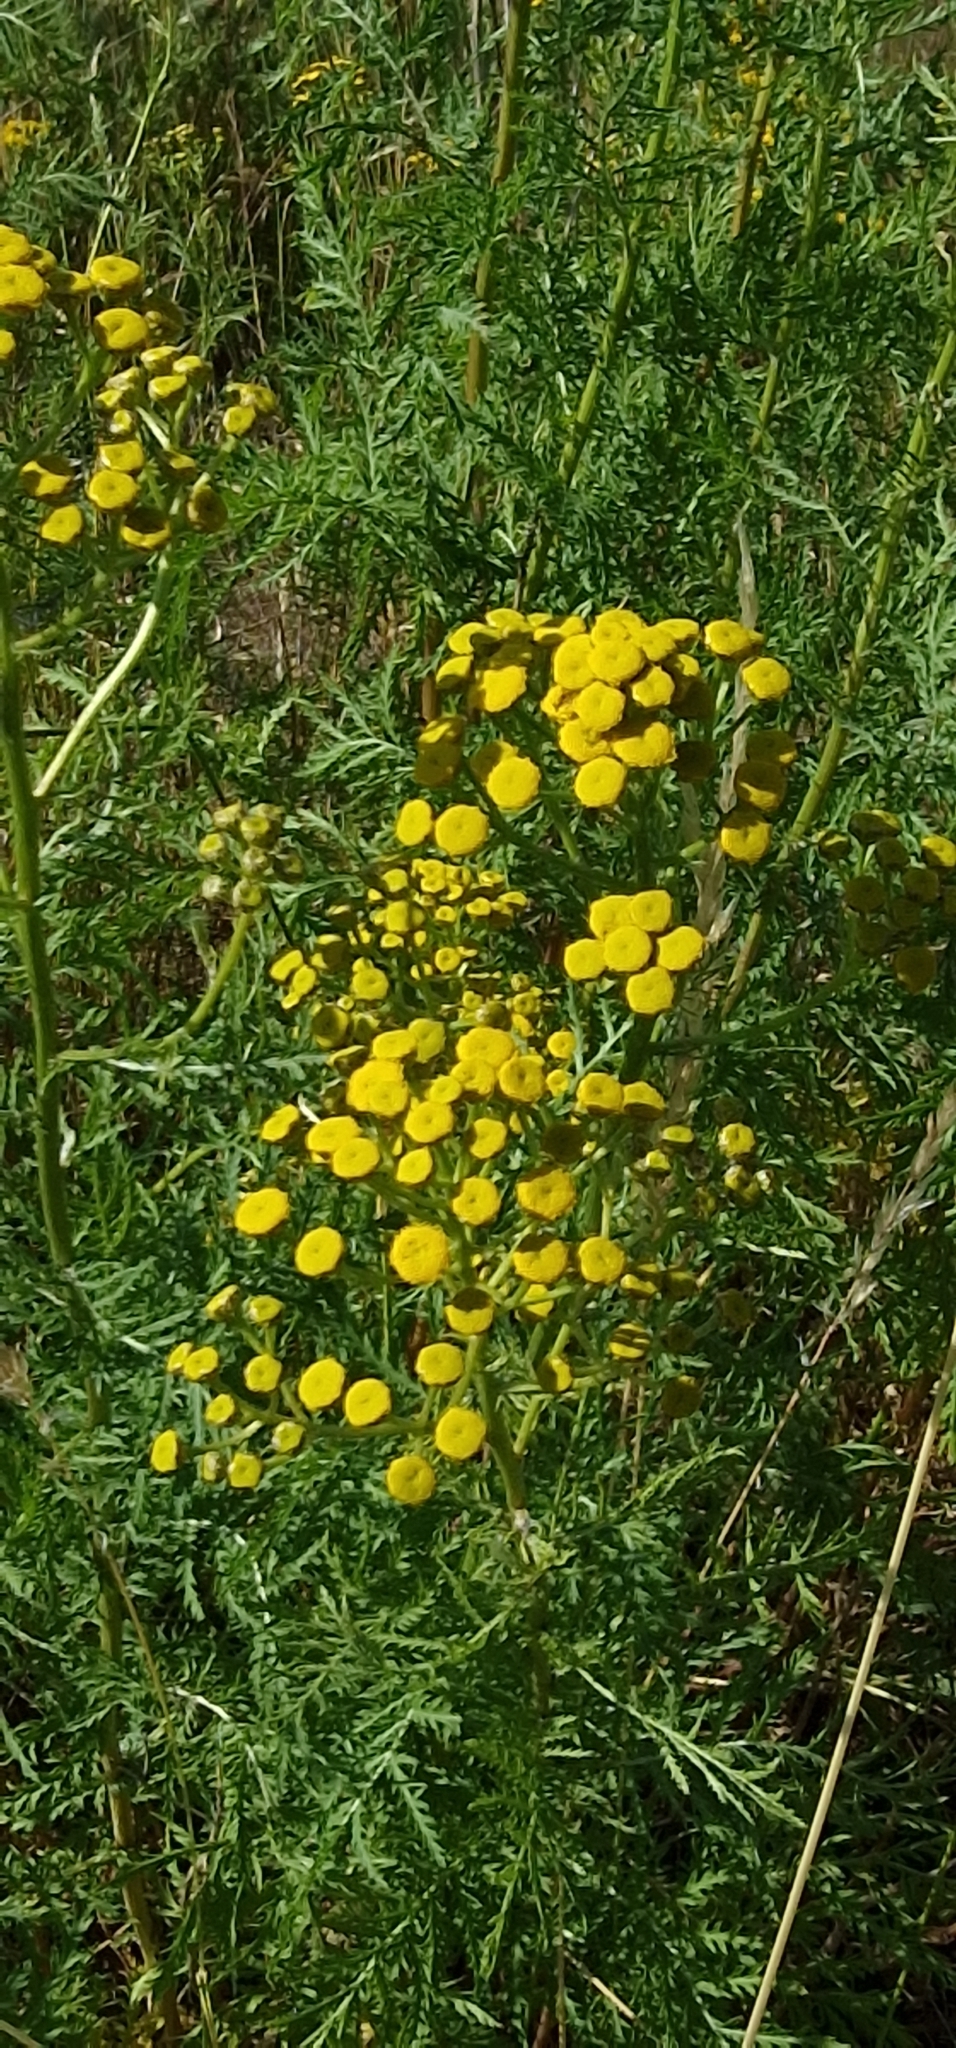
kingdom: Plantae
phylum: Tracheophyta
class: Magnoliopsida
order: Asterales
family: Asteraceae
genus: Tanacetum
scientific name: Tanacetum vulgare
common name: Common tansy
